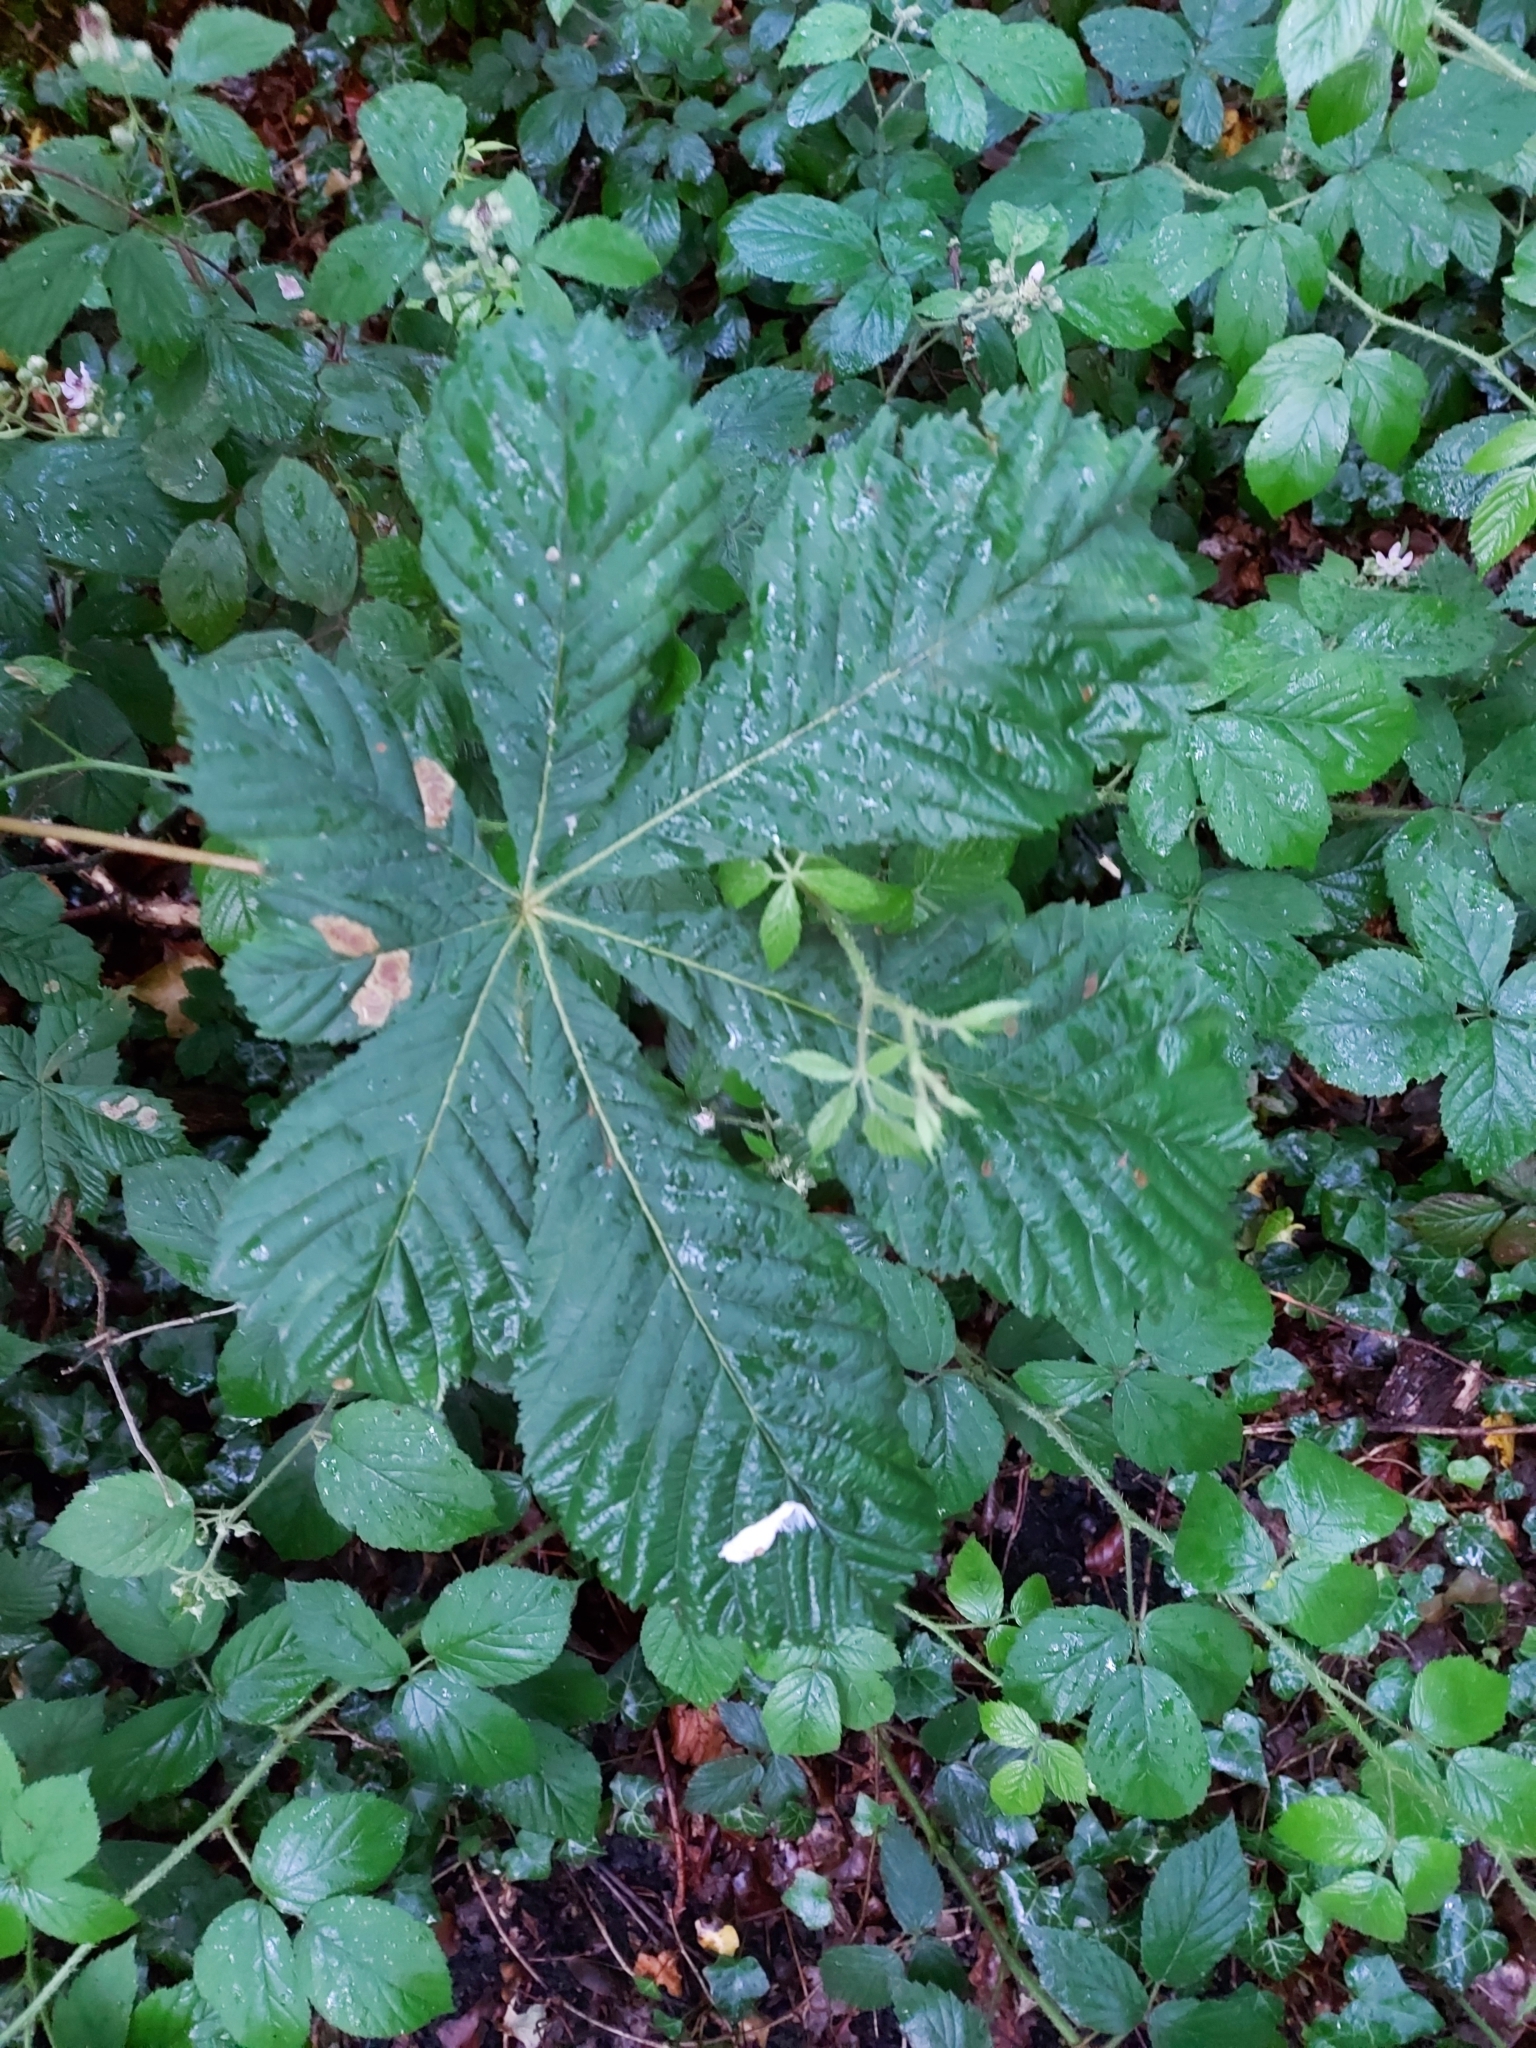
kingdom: Animalia
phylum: Arthropoda
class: Insecta
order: Lepidoptera
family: Gracillariidae
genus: Cameraria
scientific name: Cameraria ohridella
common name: Horse-chestnut leaf-miner
